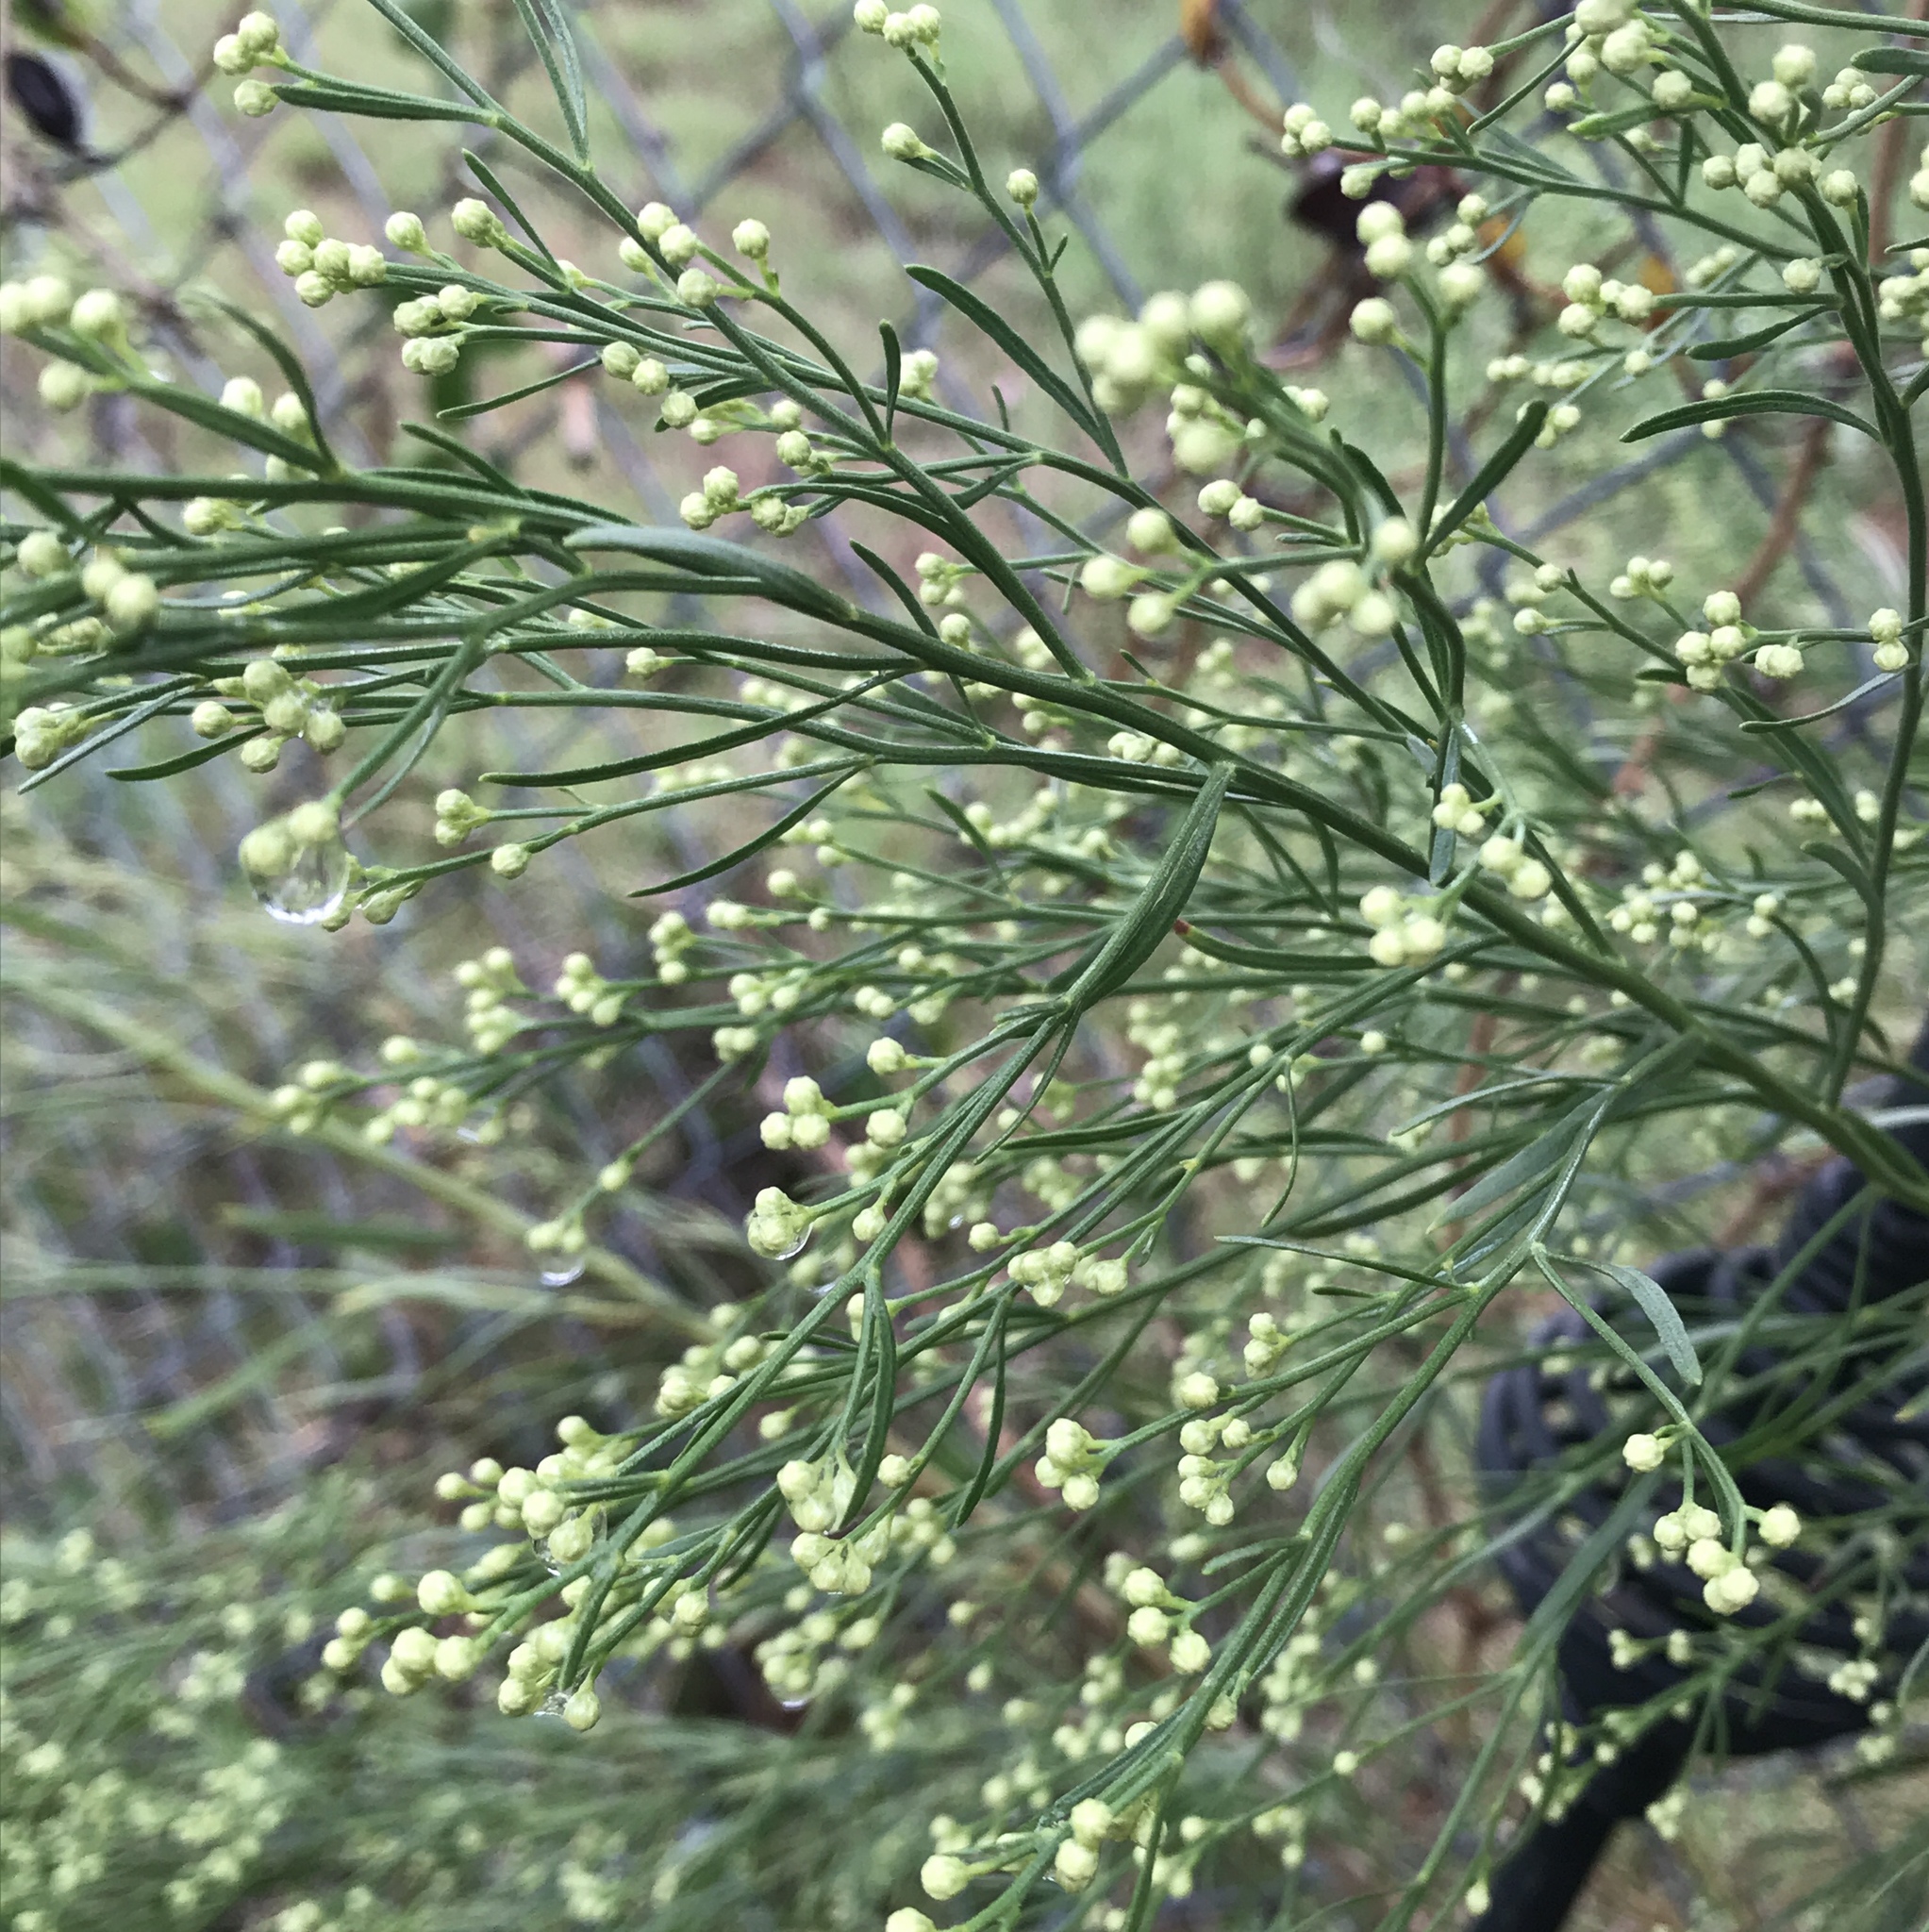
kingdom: Plantae
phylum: Tracheophyta
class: Magnoliopsida
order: Asterales
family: Asteraceae
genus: Baccharis
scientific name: Baccharis neglecta
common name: Roosevelt-weed
